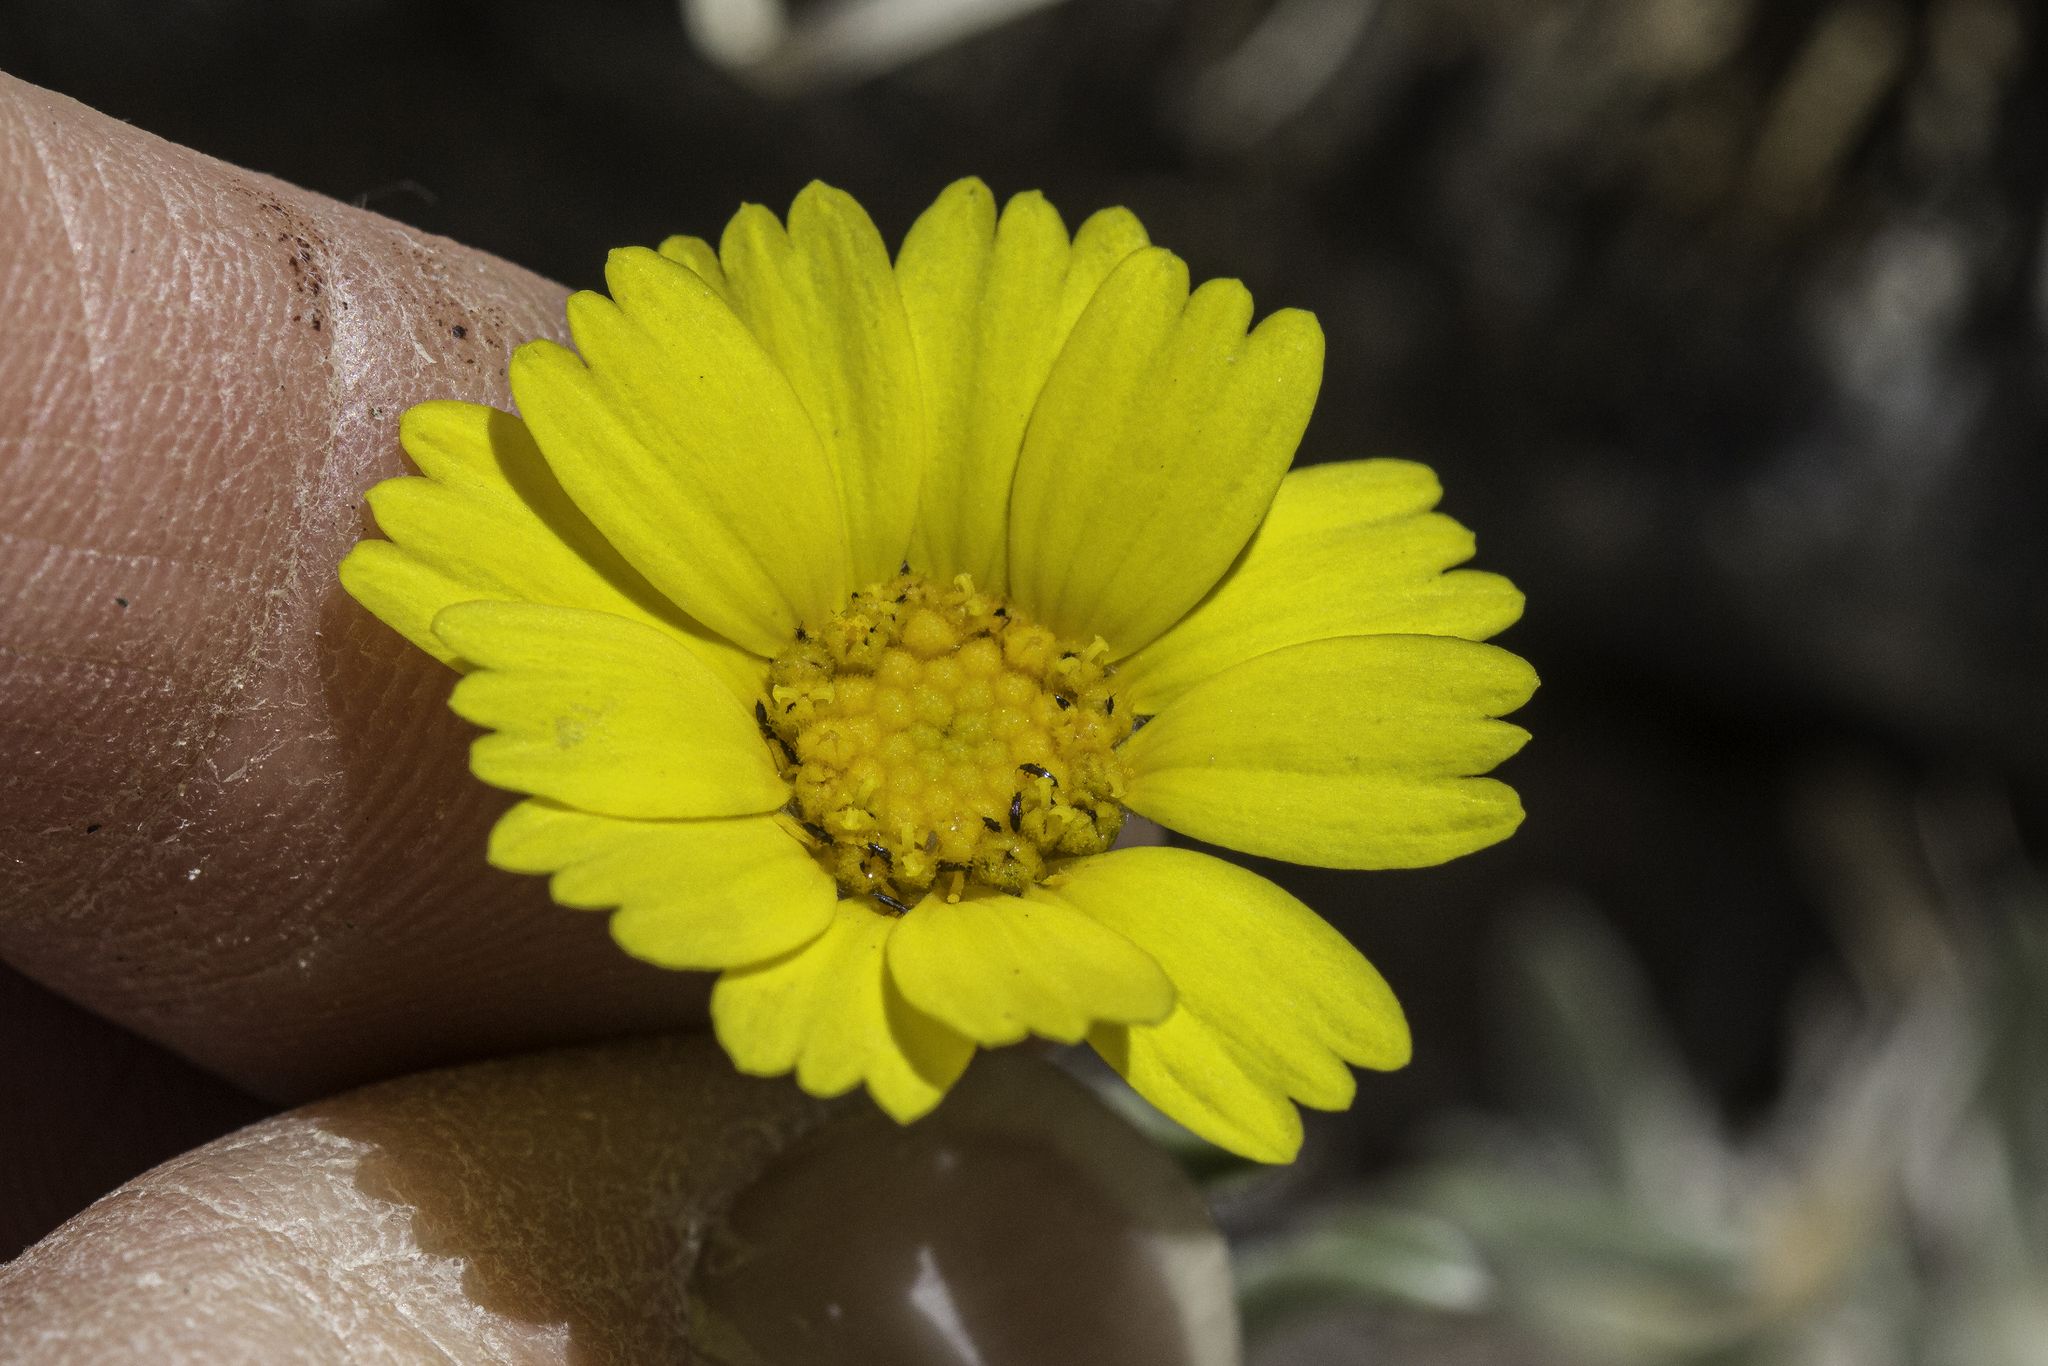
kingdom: Plantae
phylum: Tracheophyta
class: Magnoliopsida
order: Asterales
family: Asteraceae
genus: Tetraneuris
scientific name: Tetraneuris argentea
